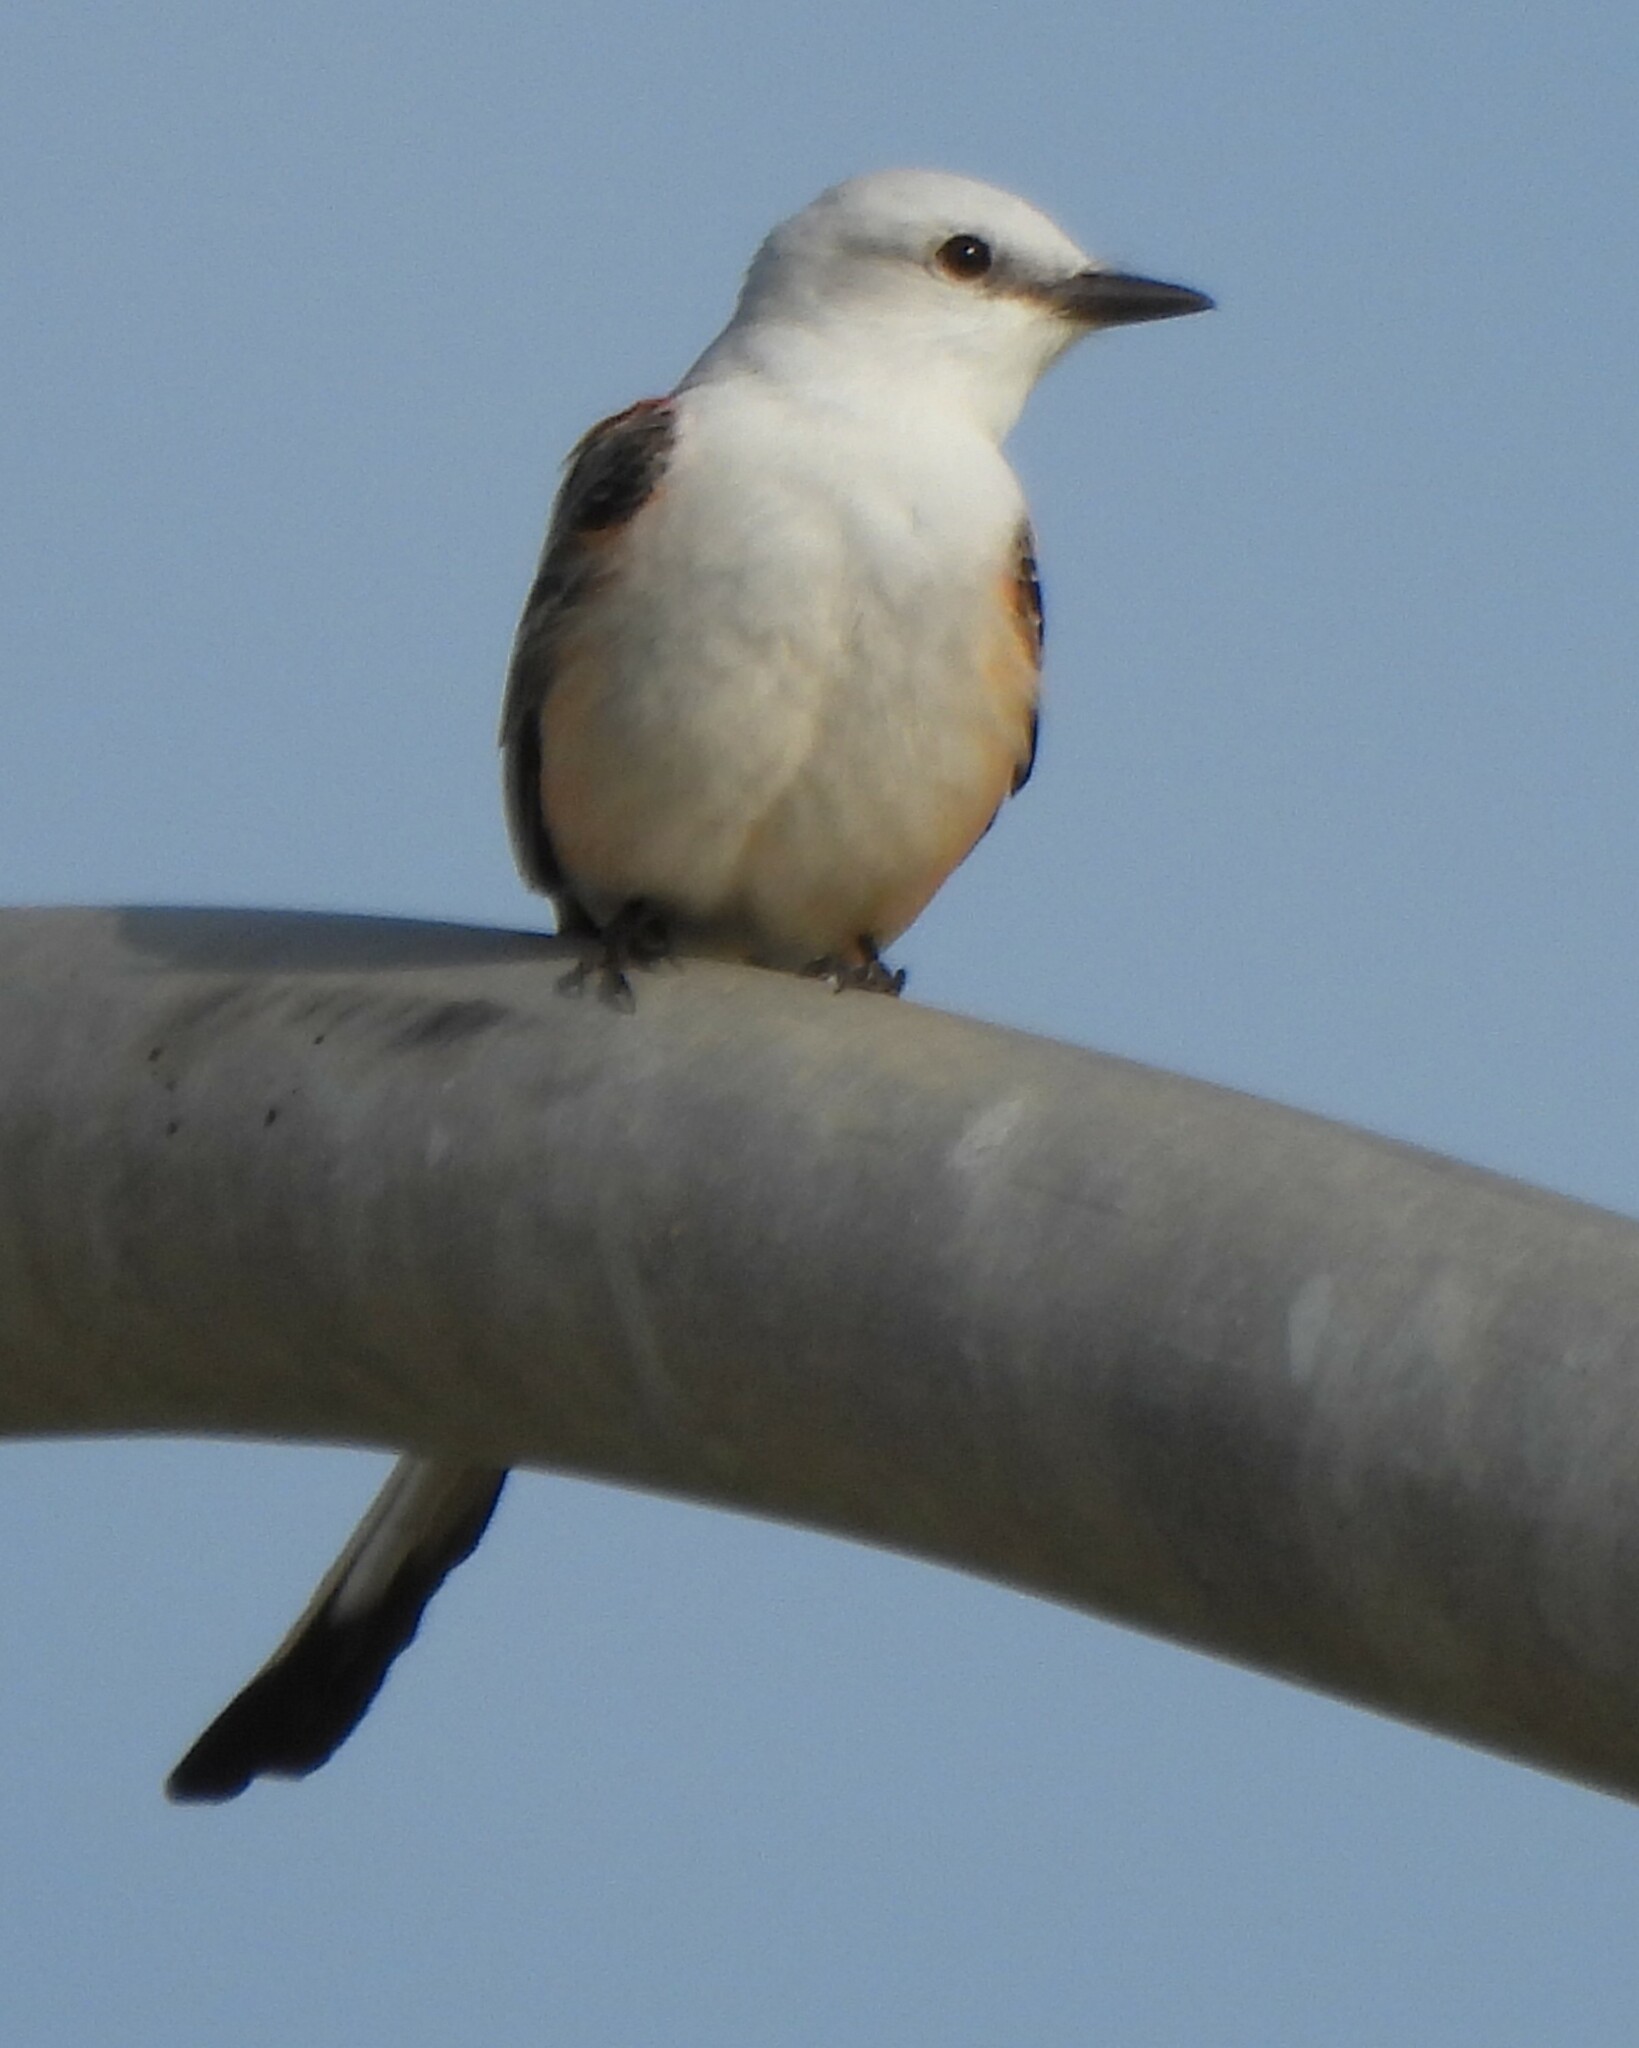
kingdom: Animalia
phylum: Chordata
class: Aves
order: Passeriformes
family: Tyrannidae
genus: Tyrannus
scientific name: Tyrannus forficatus
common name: Scissor-tailed flycatcher
